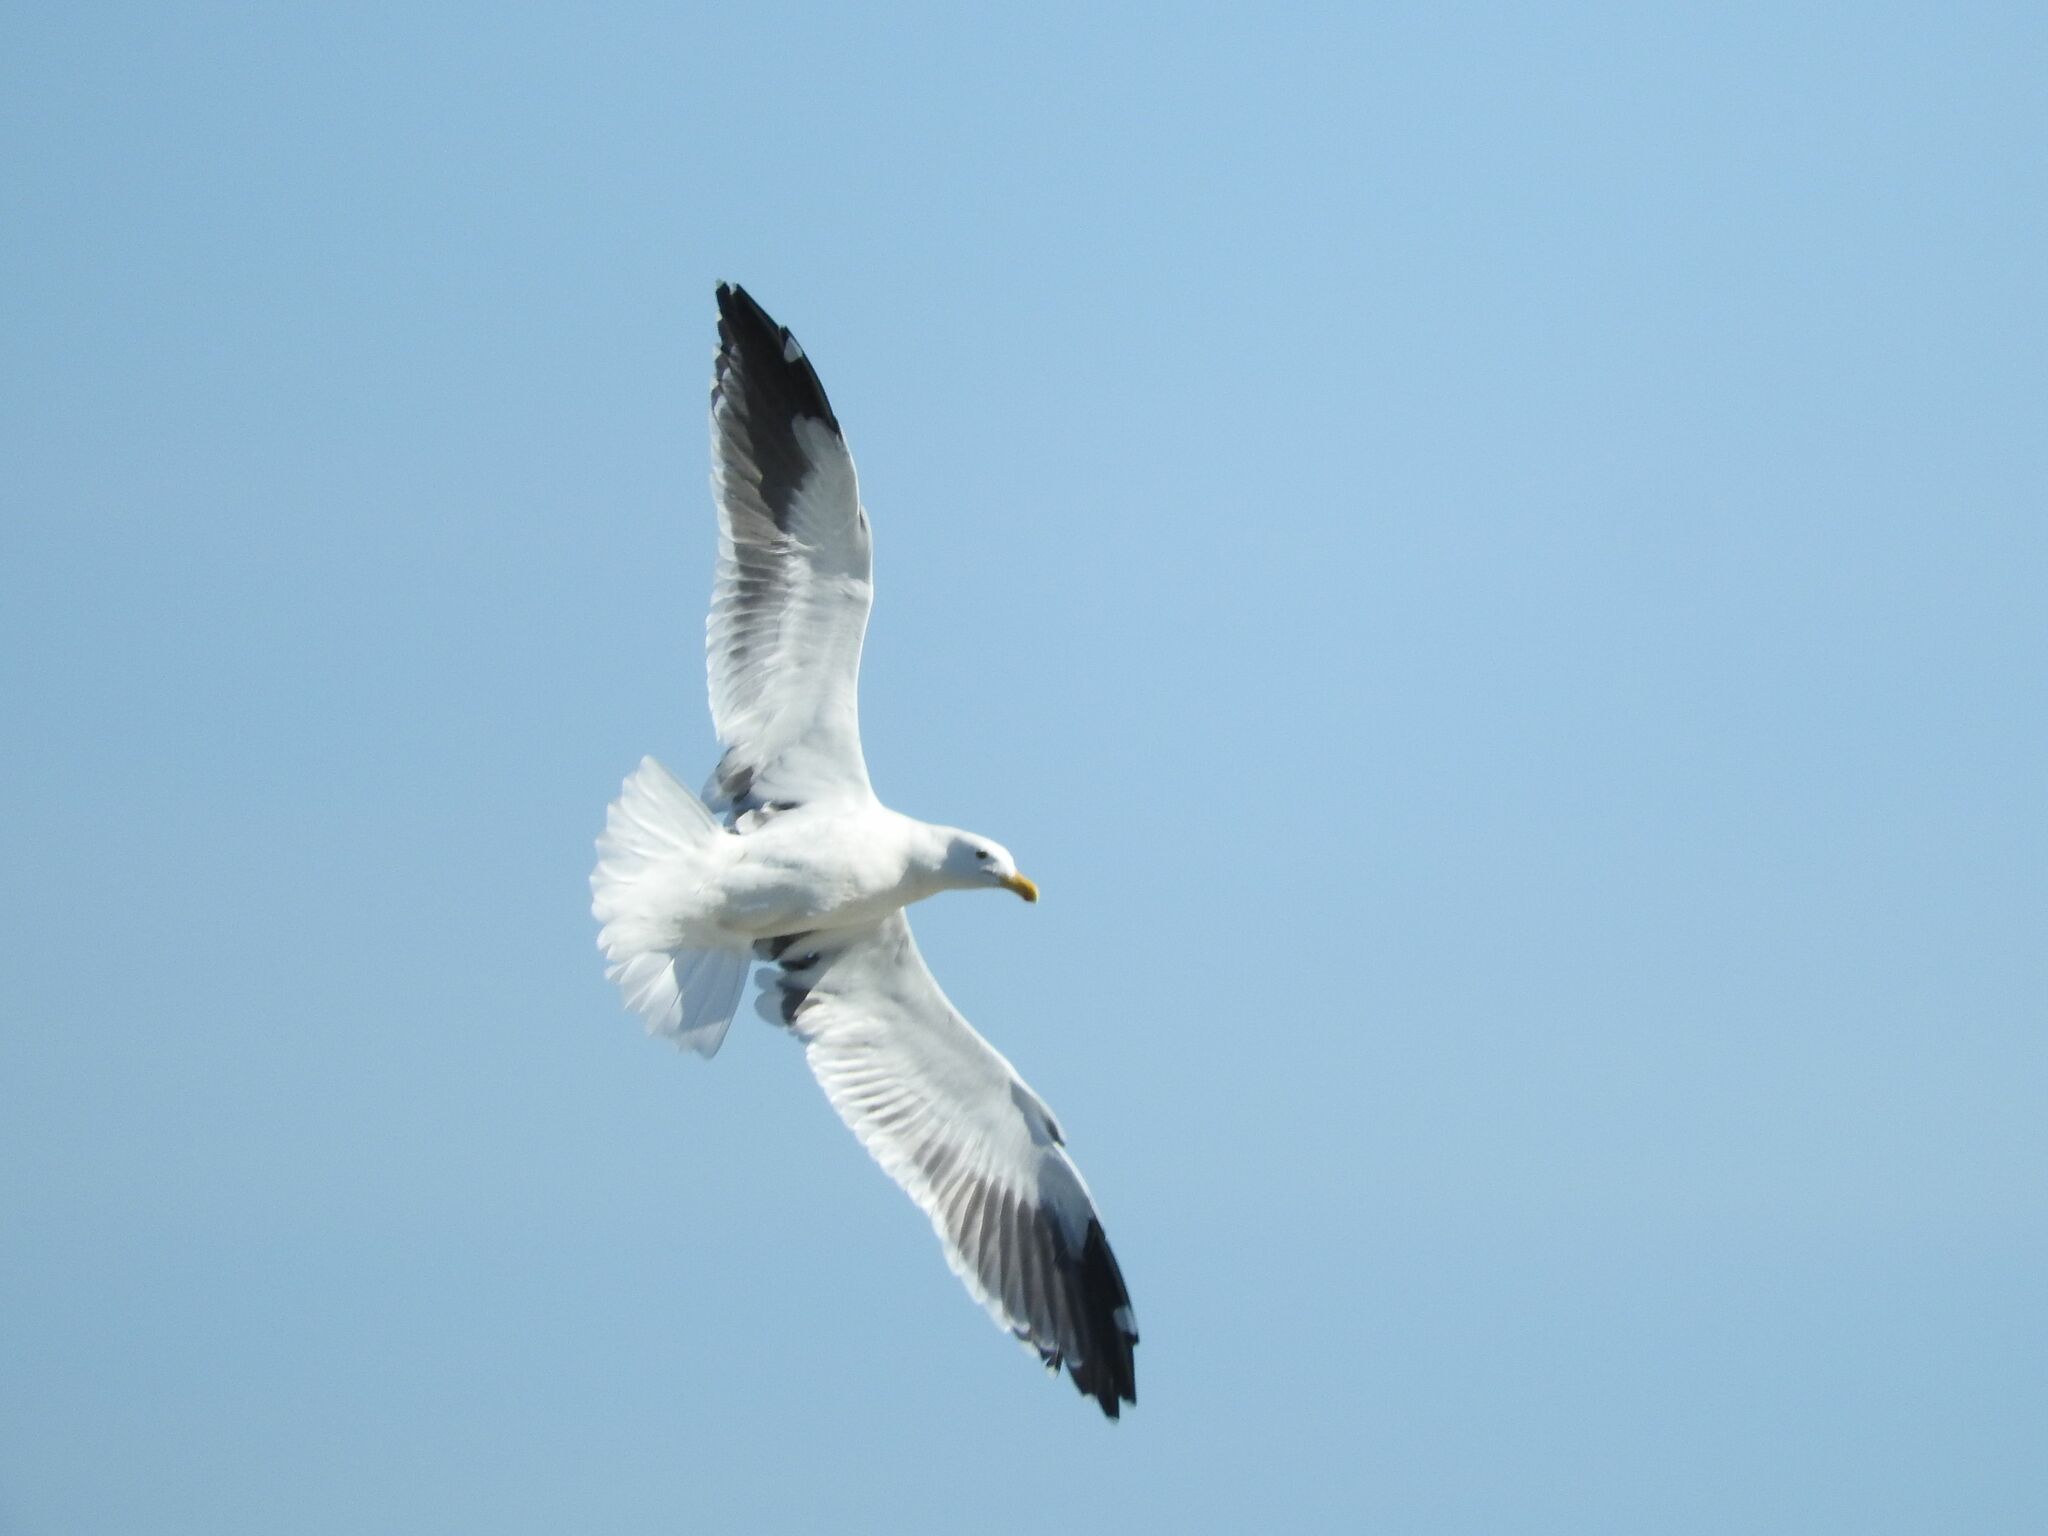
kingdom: Animalia
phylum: Chordata
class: Aves
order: Charadriiformes
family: Laridae
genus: Larus
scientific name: Larus dominicanus
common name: Kelp gull
